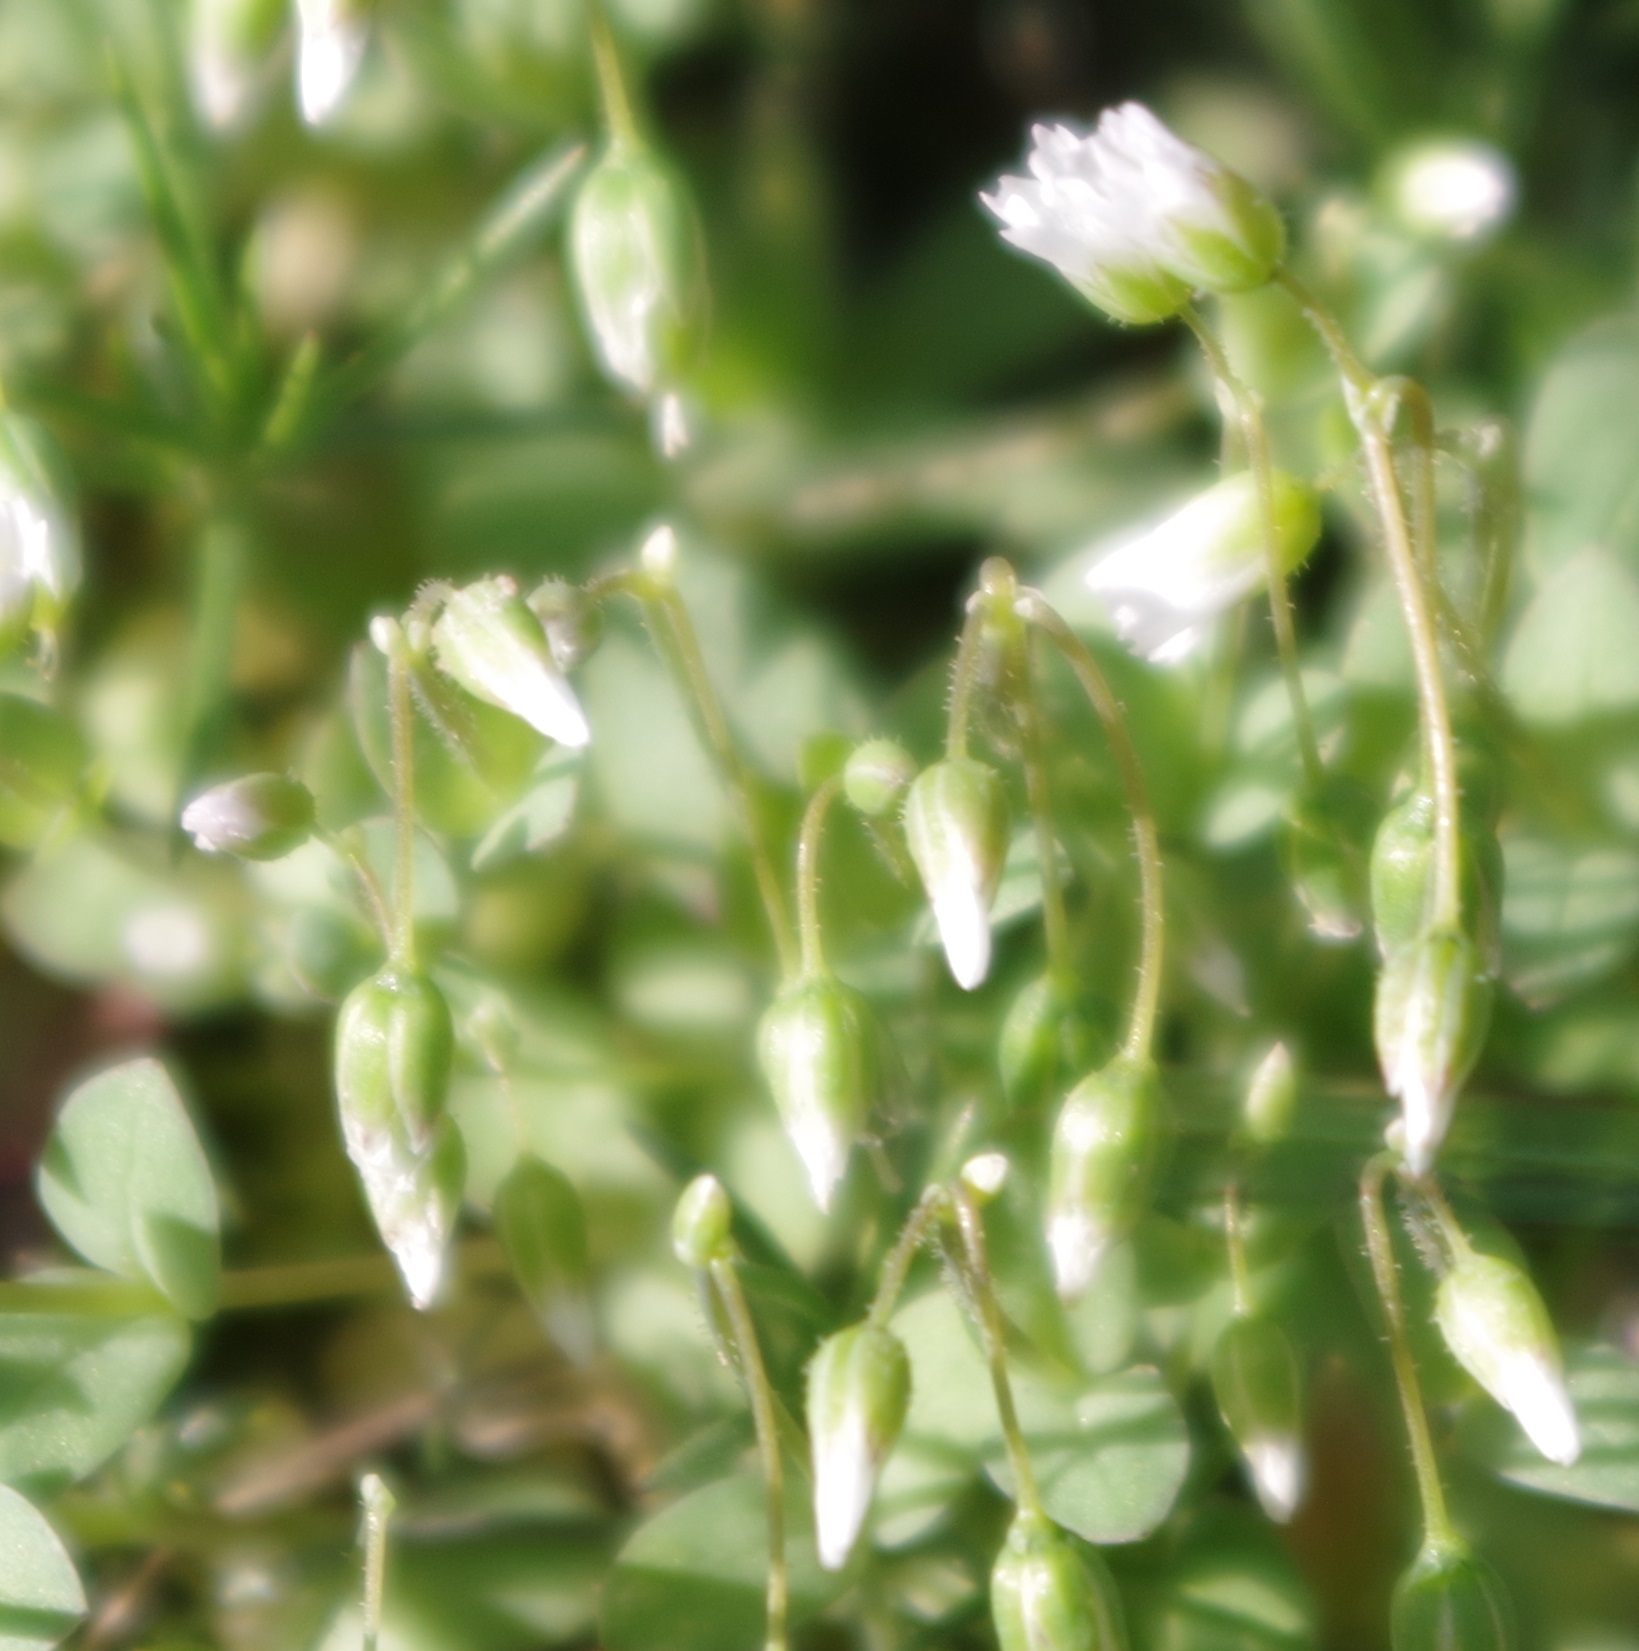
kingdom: Plantae
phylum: Tracheophyta
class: Magnoliopsida
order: Caryophyllales
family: Caryophyllaceae
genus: Holosteum
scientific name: Holosteum umbellatum
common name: Jagged chickweed
